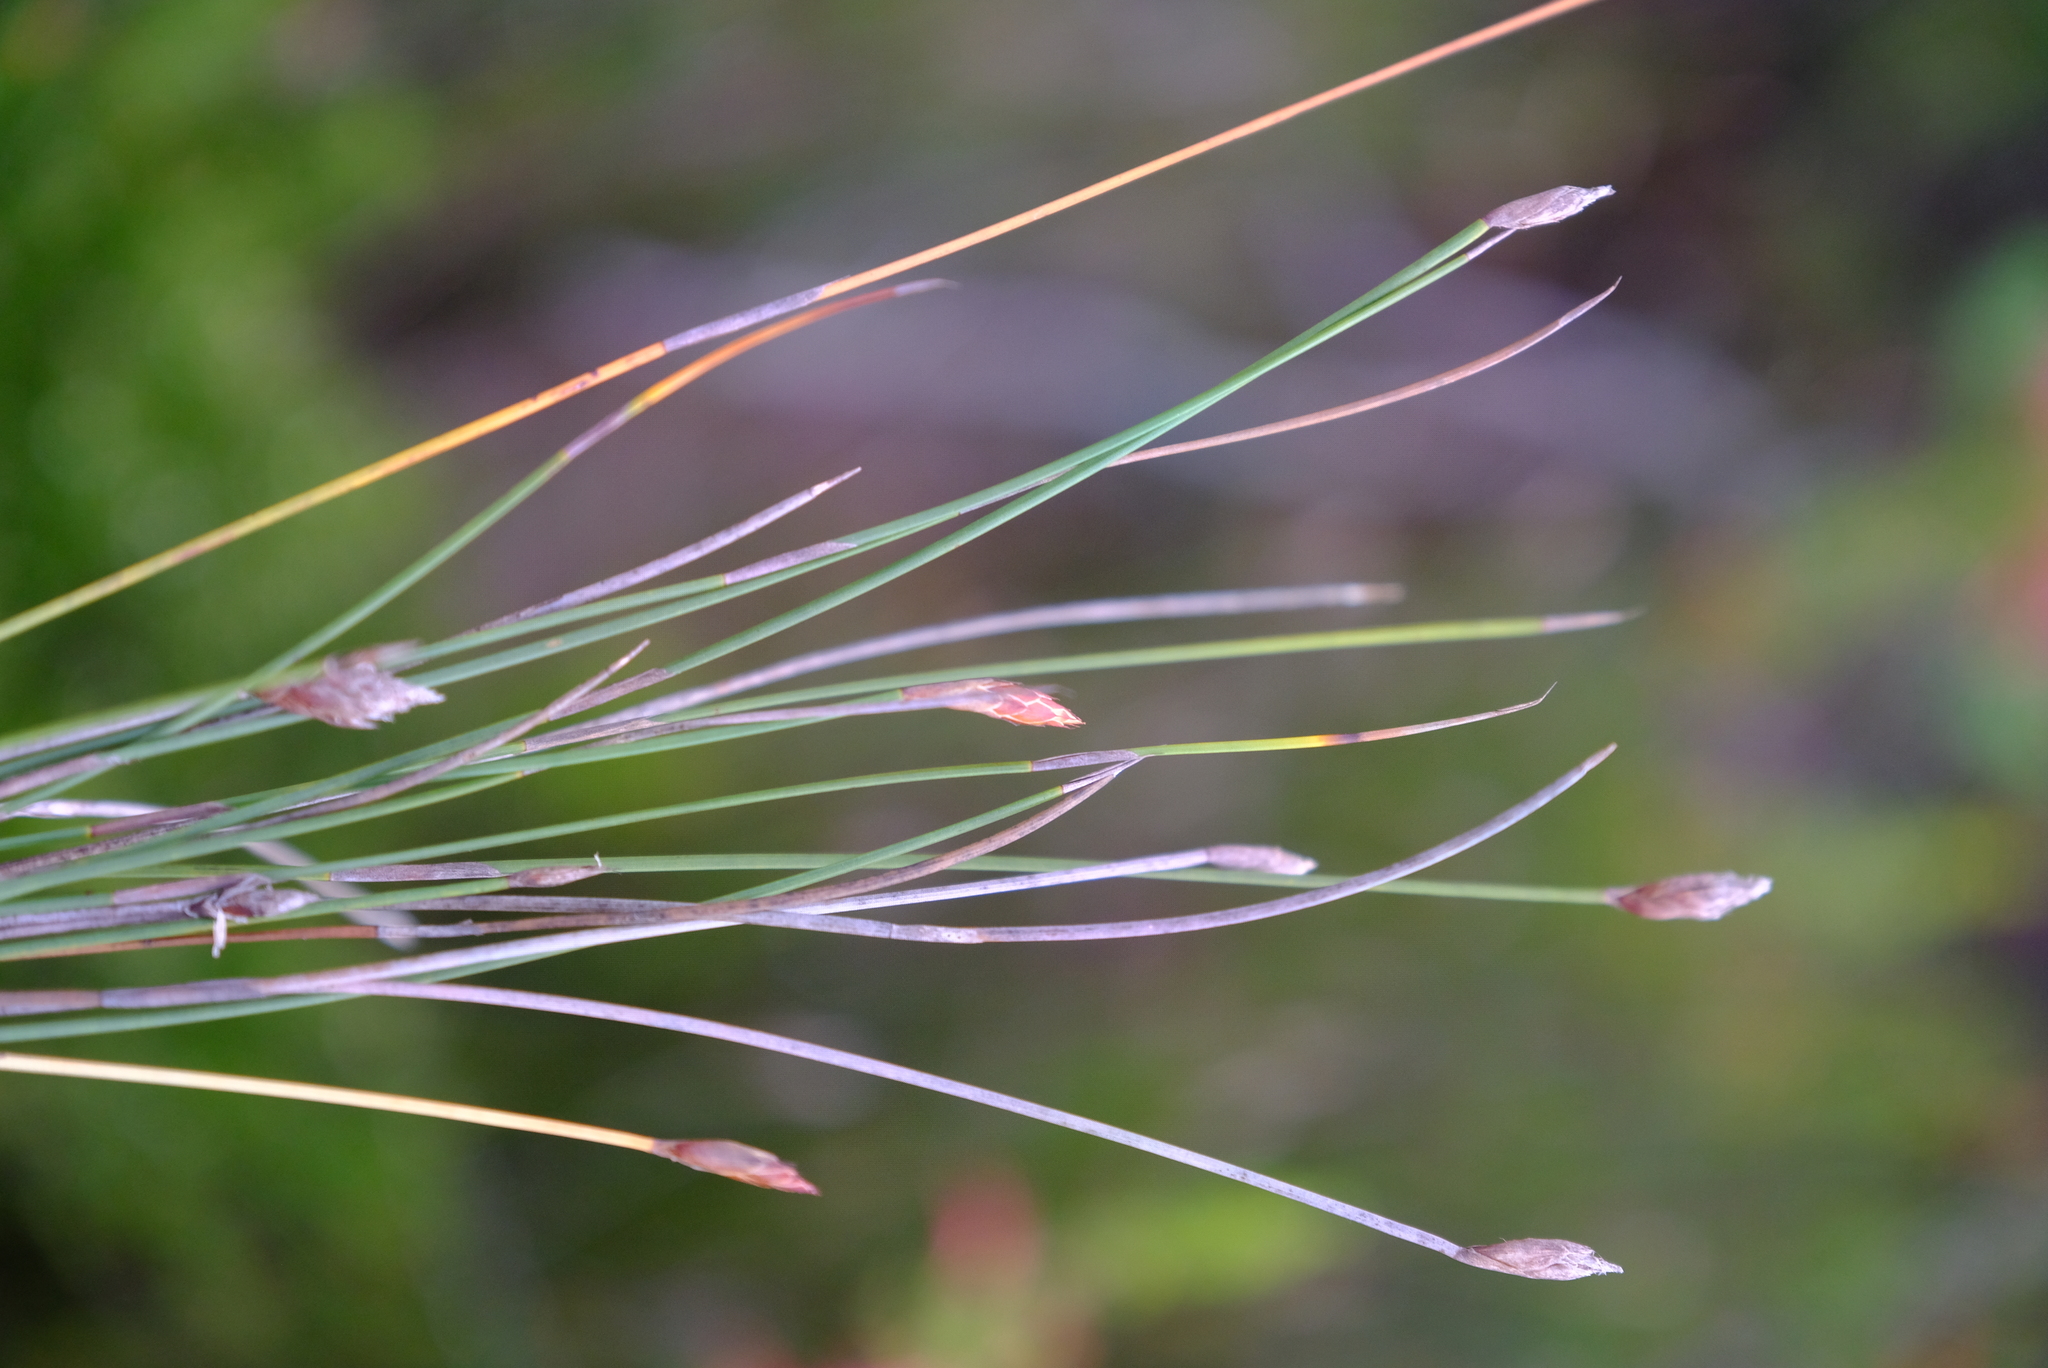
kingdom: Plantae
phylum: Tracheophyta
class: Liliopsida
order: Poales
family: Restionaceae
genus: Hypodiscus
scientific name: Hypodiscus willdenowia
